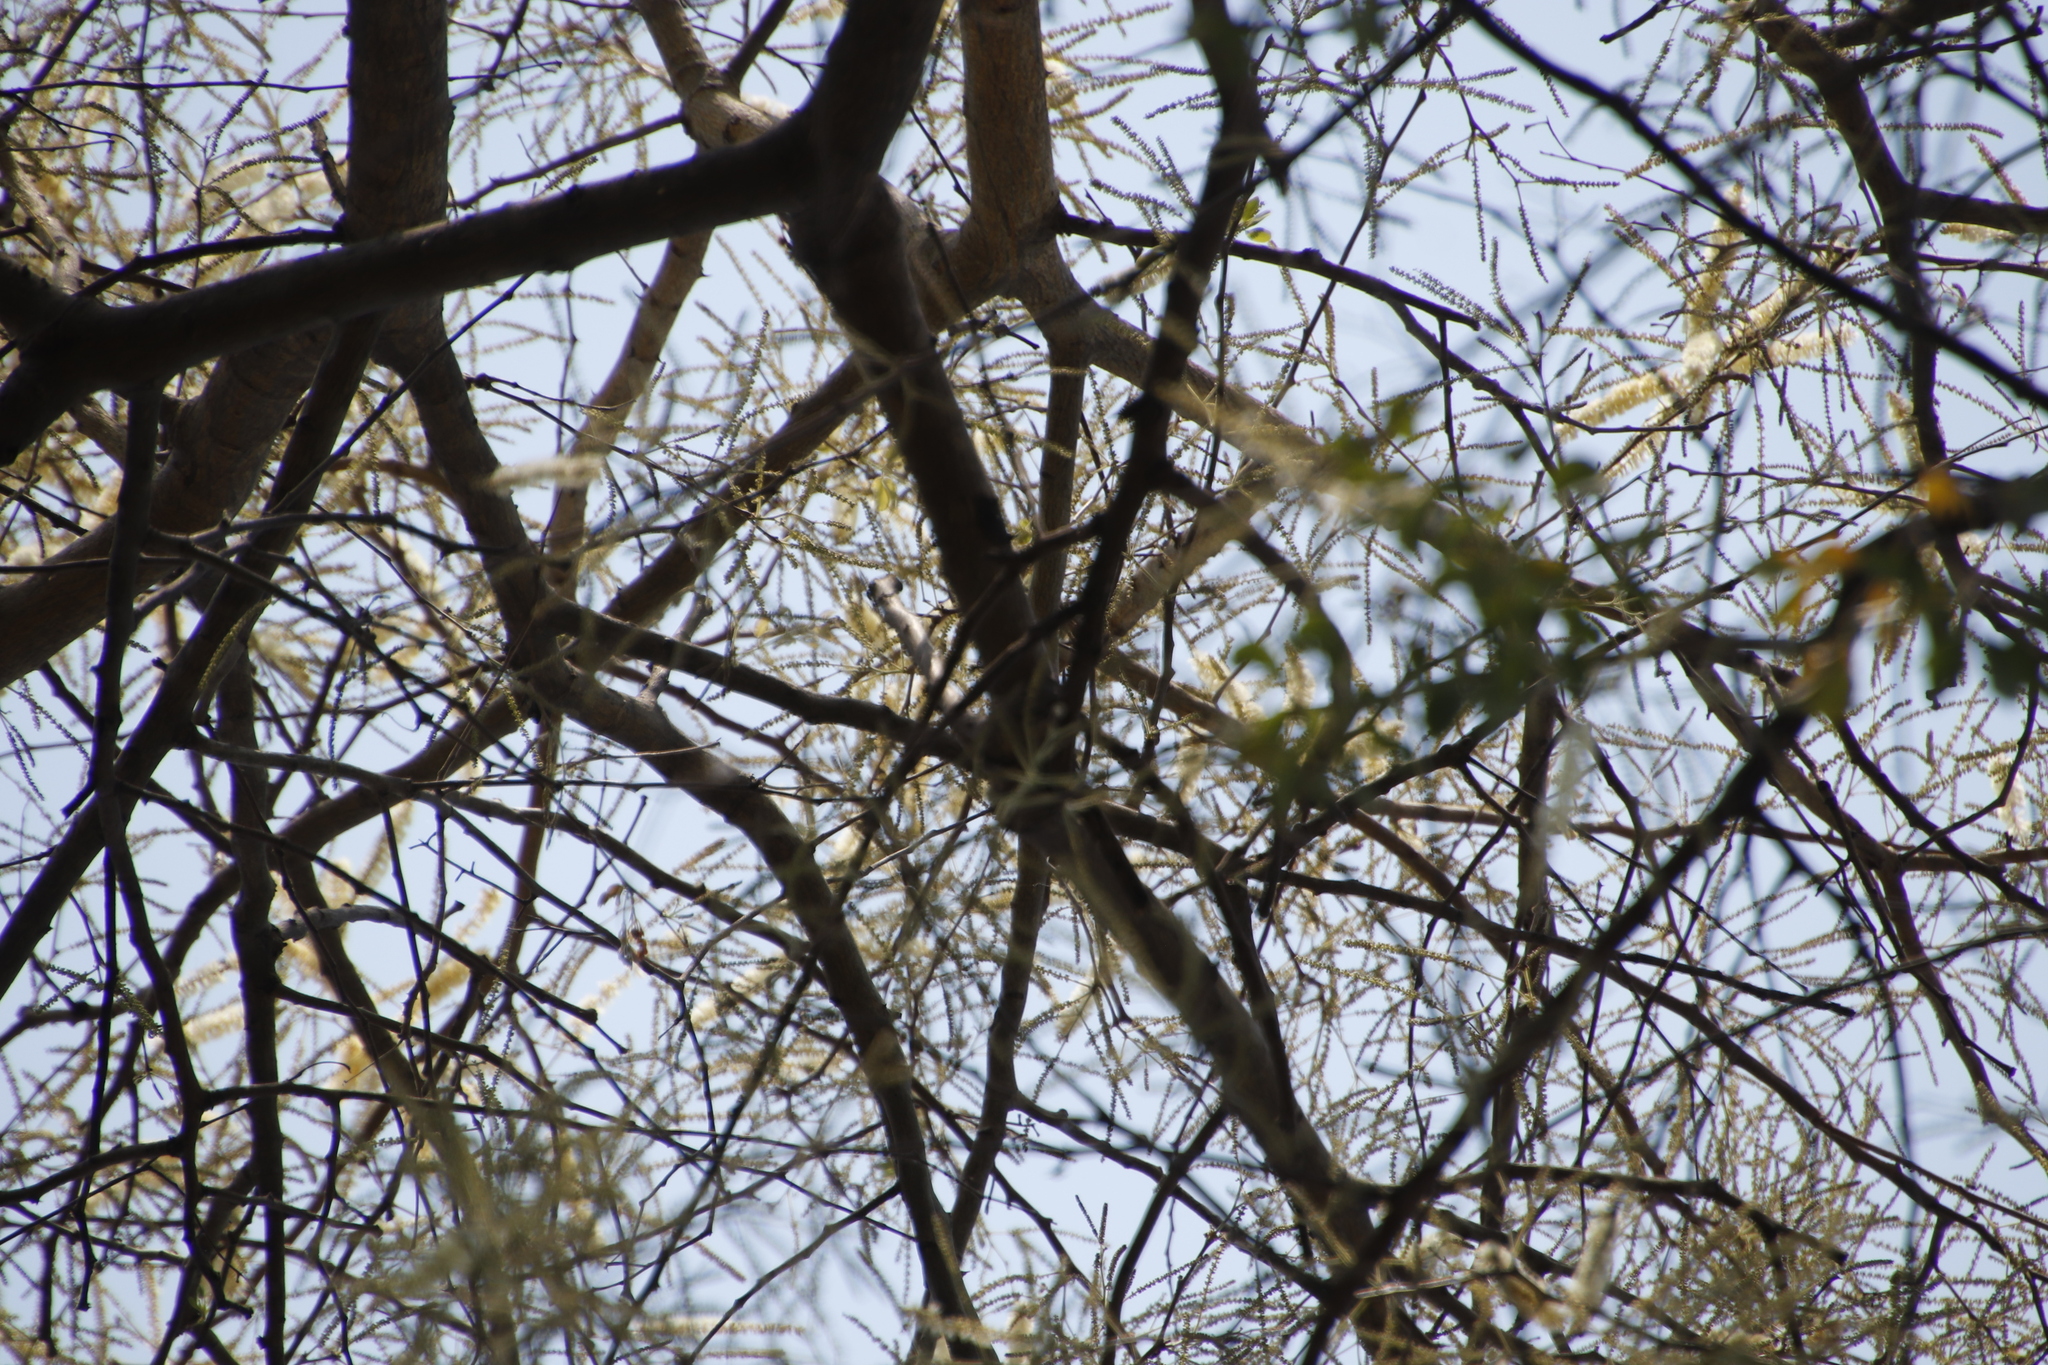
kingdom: Plantae
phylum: Tracheophyta
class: Magnoliopsida
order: Fabales
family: Fabaceae
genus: Senegalia
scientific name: Senegalia nigrescens
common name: Knobthorn
